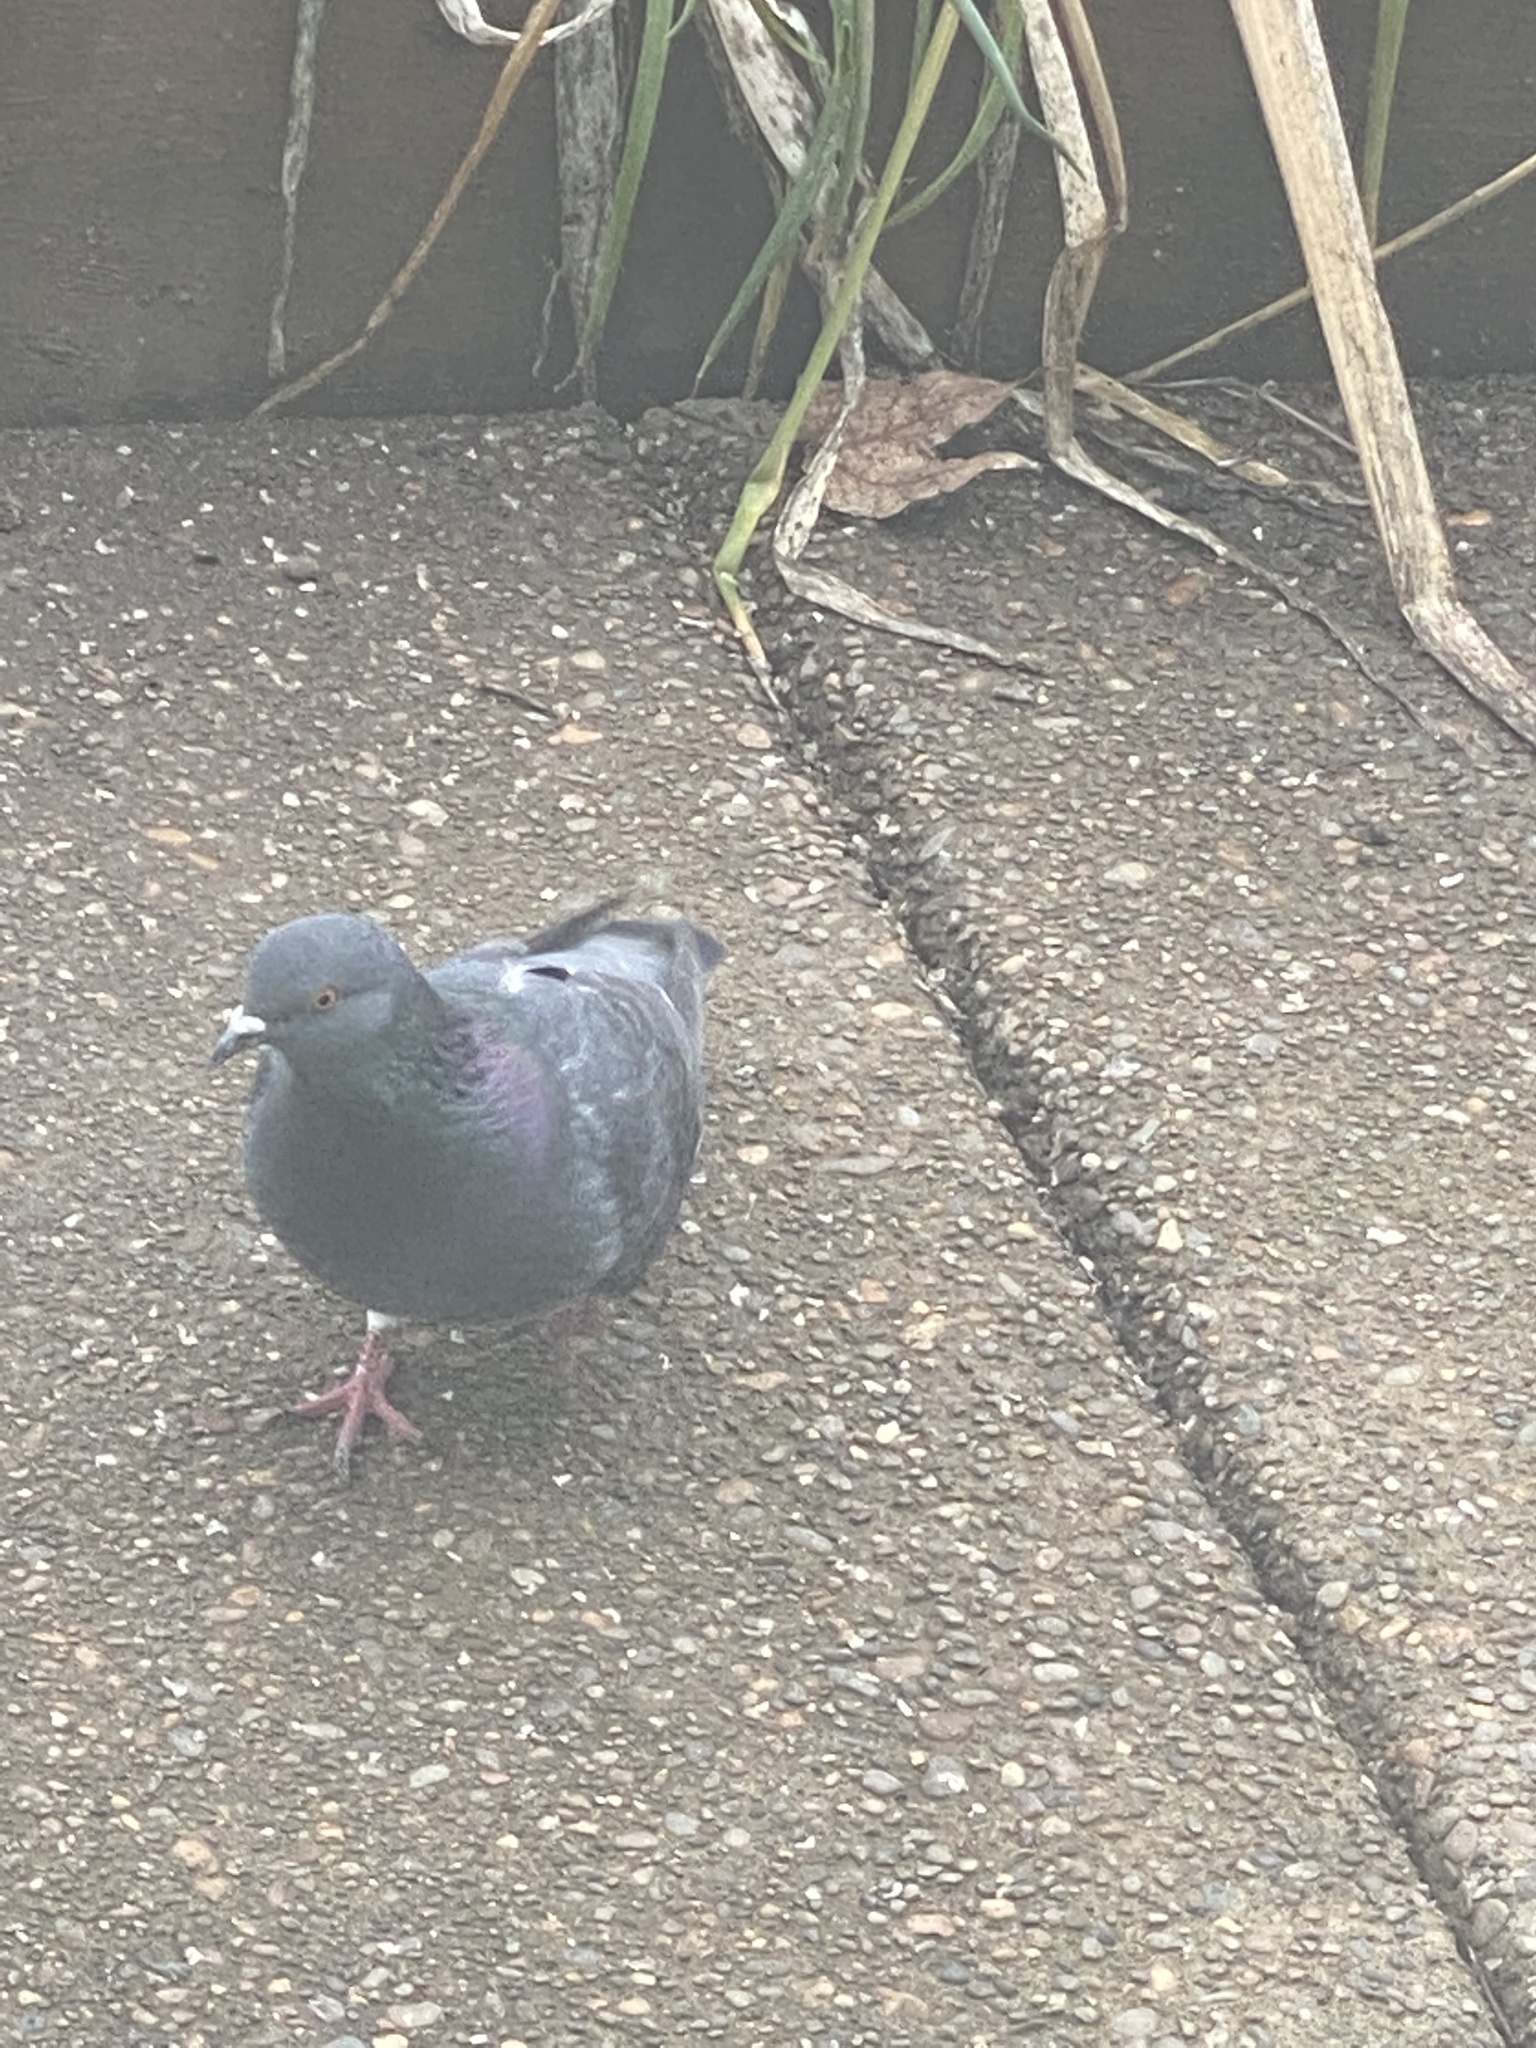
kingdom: Animalia
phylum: Chordata
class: Aves
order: Columbiformes
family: Columbidae
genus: Columba
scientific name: Columba livia
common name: Rock pigeon
